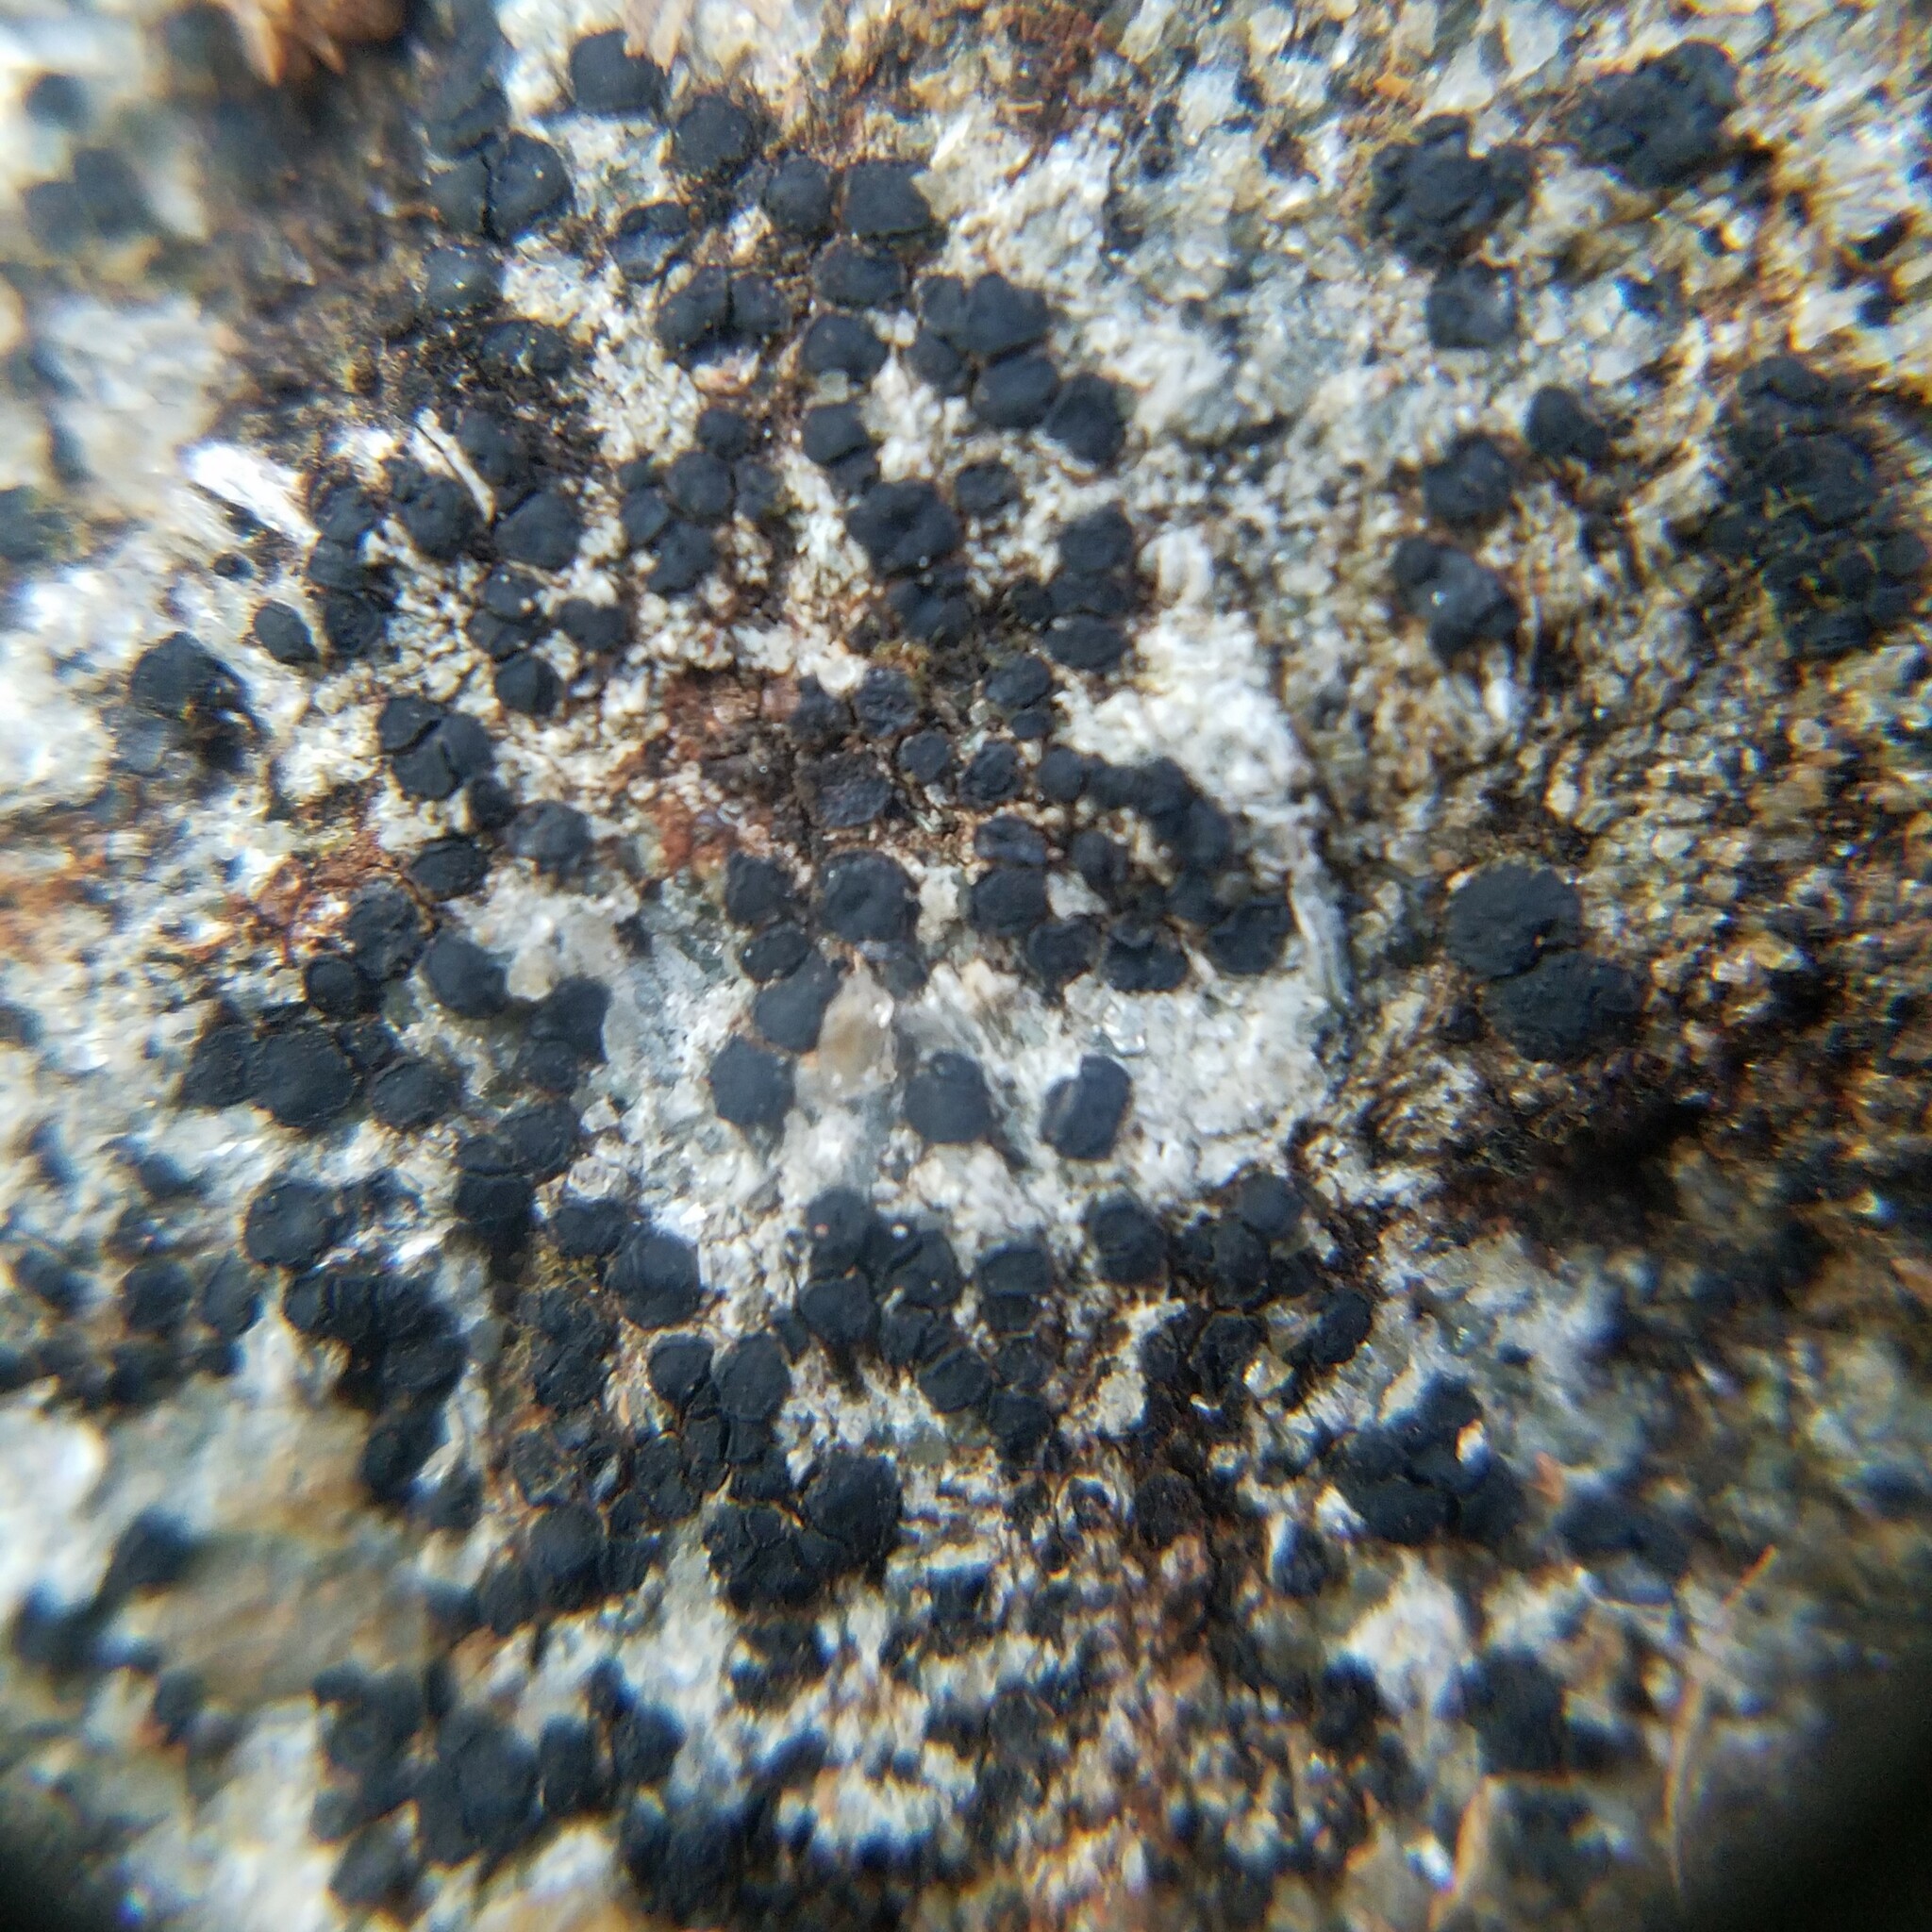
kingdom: Fungi
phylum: Ascomycota
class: Lecanoromycetes
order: Lecideales
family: Lecideaceae
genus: Porpidia
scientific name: Porpidia subsimplex
